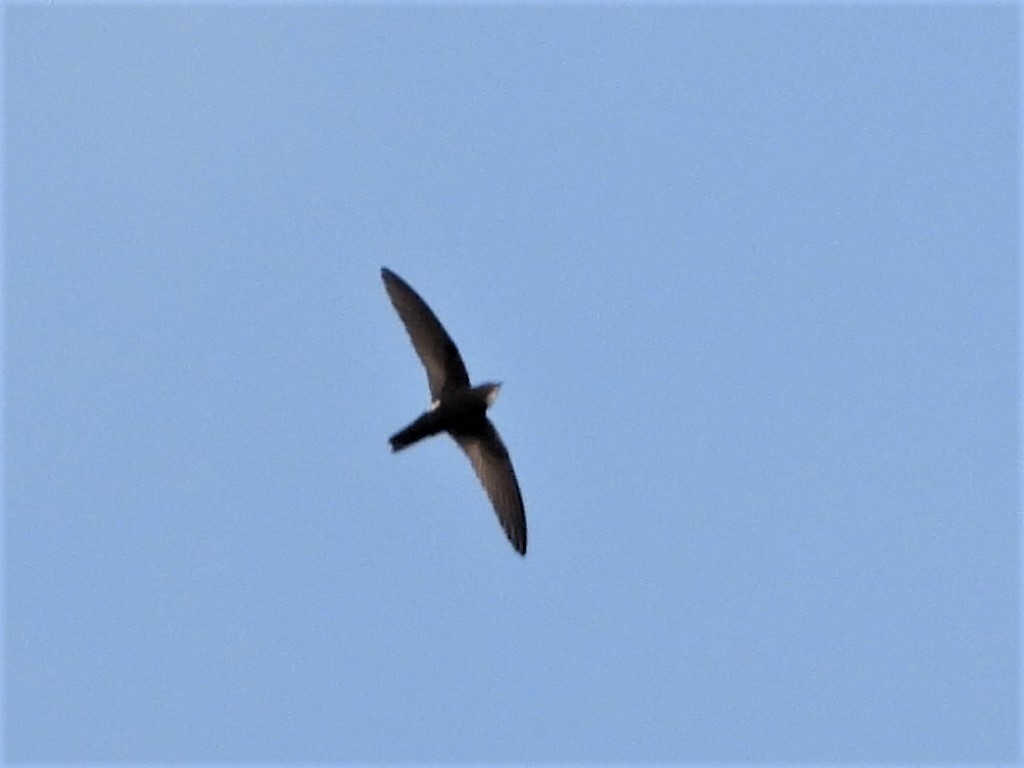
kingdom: Animalia
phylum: Chordata
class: Aves
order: Apodiformes
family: Apodidae
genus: Apus
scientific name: Apus nipalensis
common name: House swift
